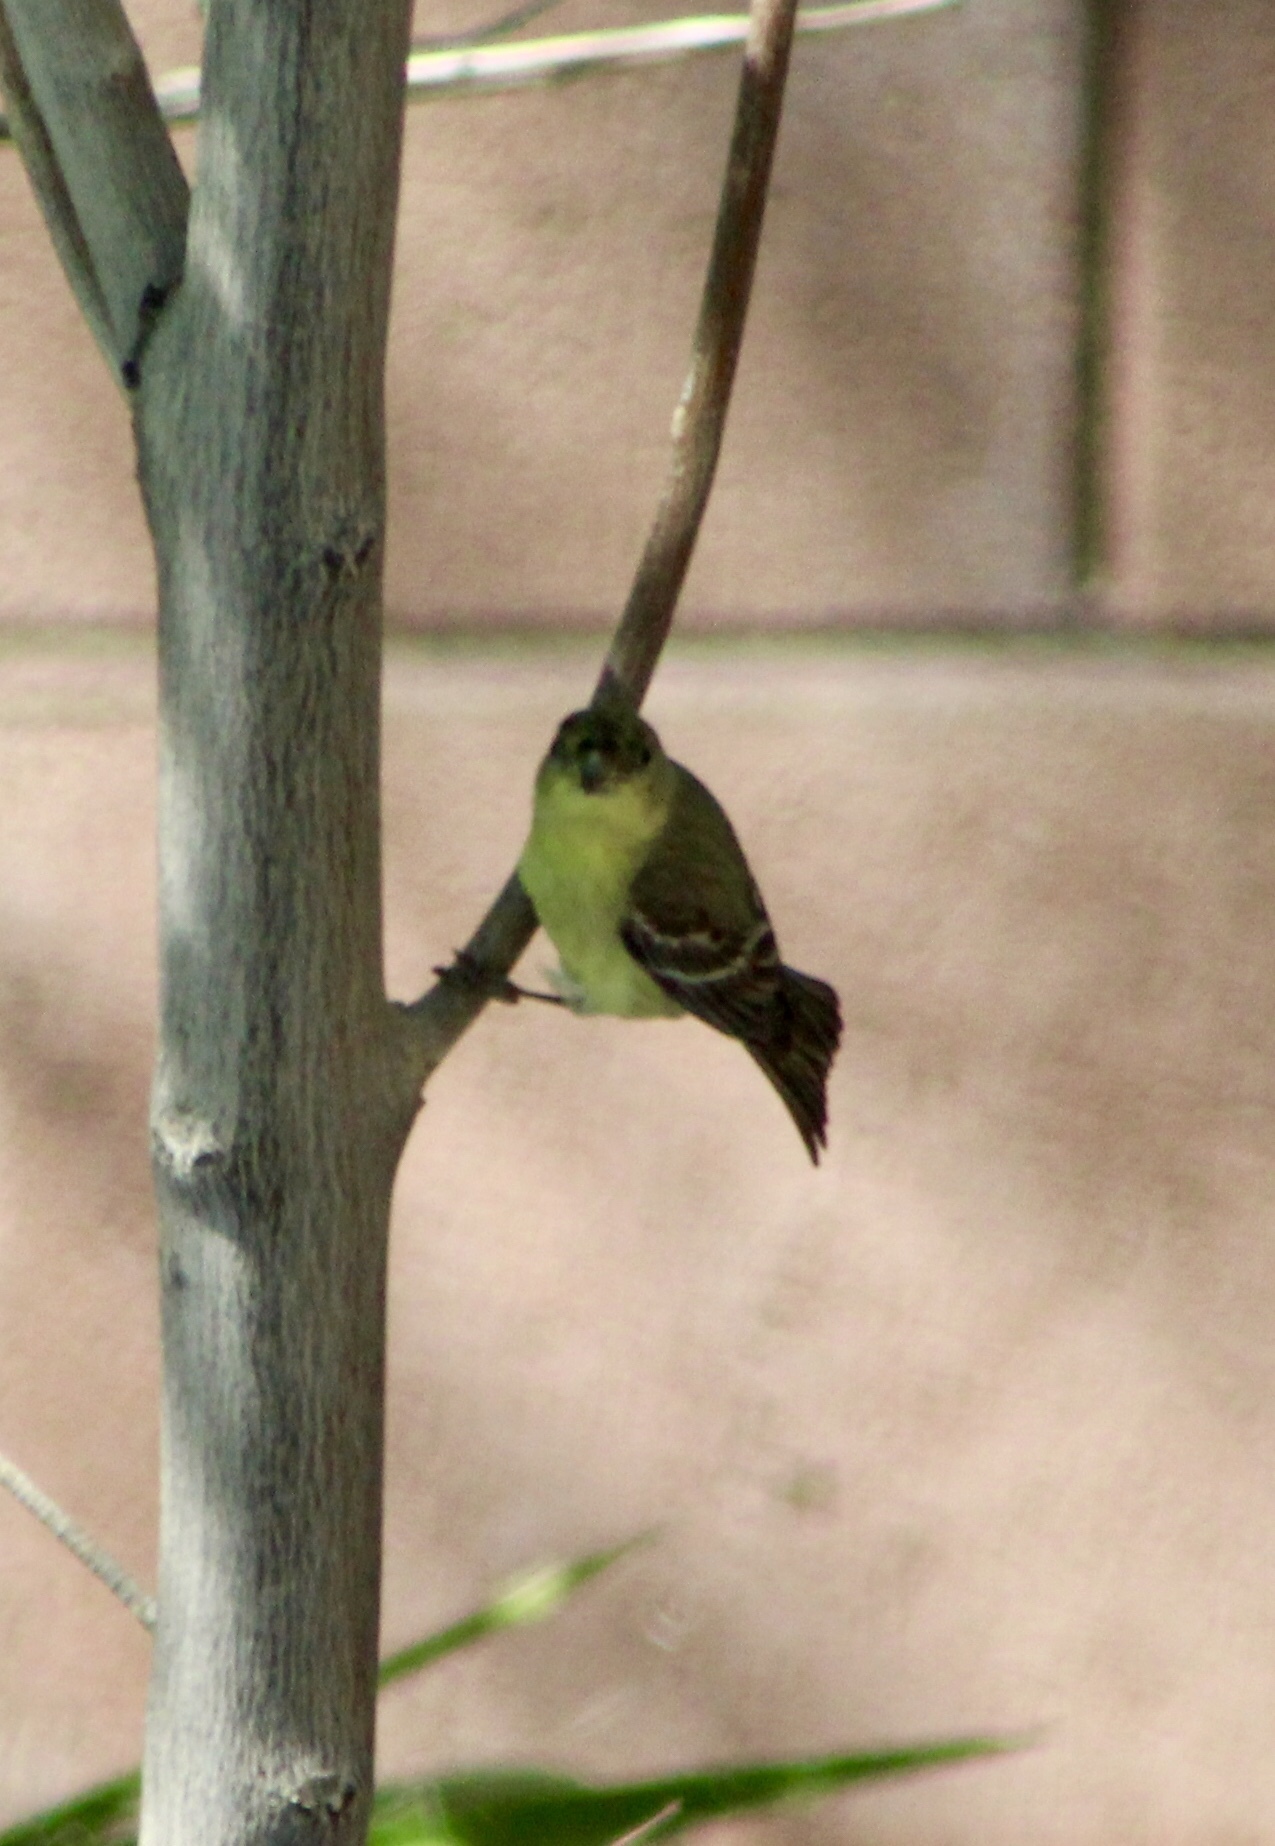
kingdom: Animalia
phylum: Chordata
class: Aves
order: Passeriformes
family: Fringillidae
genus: Spinus
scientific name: Spinus psaltria
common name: Lesser goldfinch
